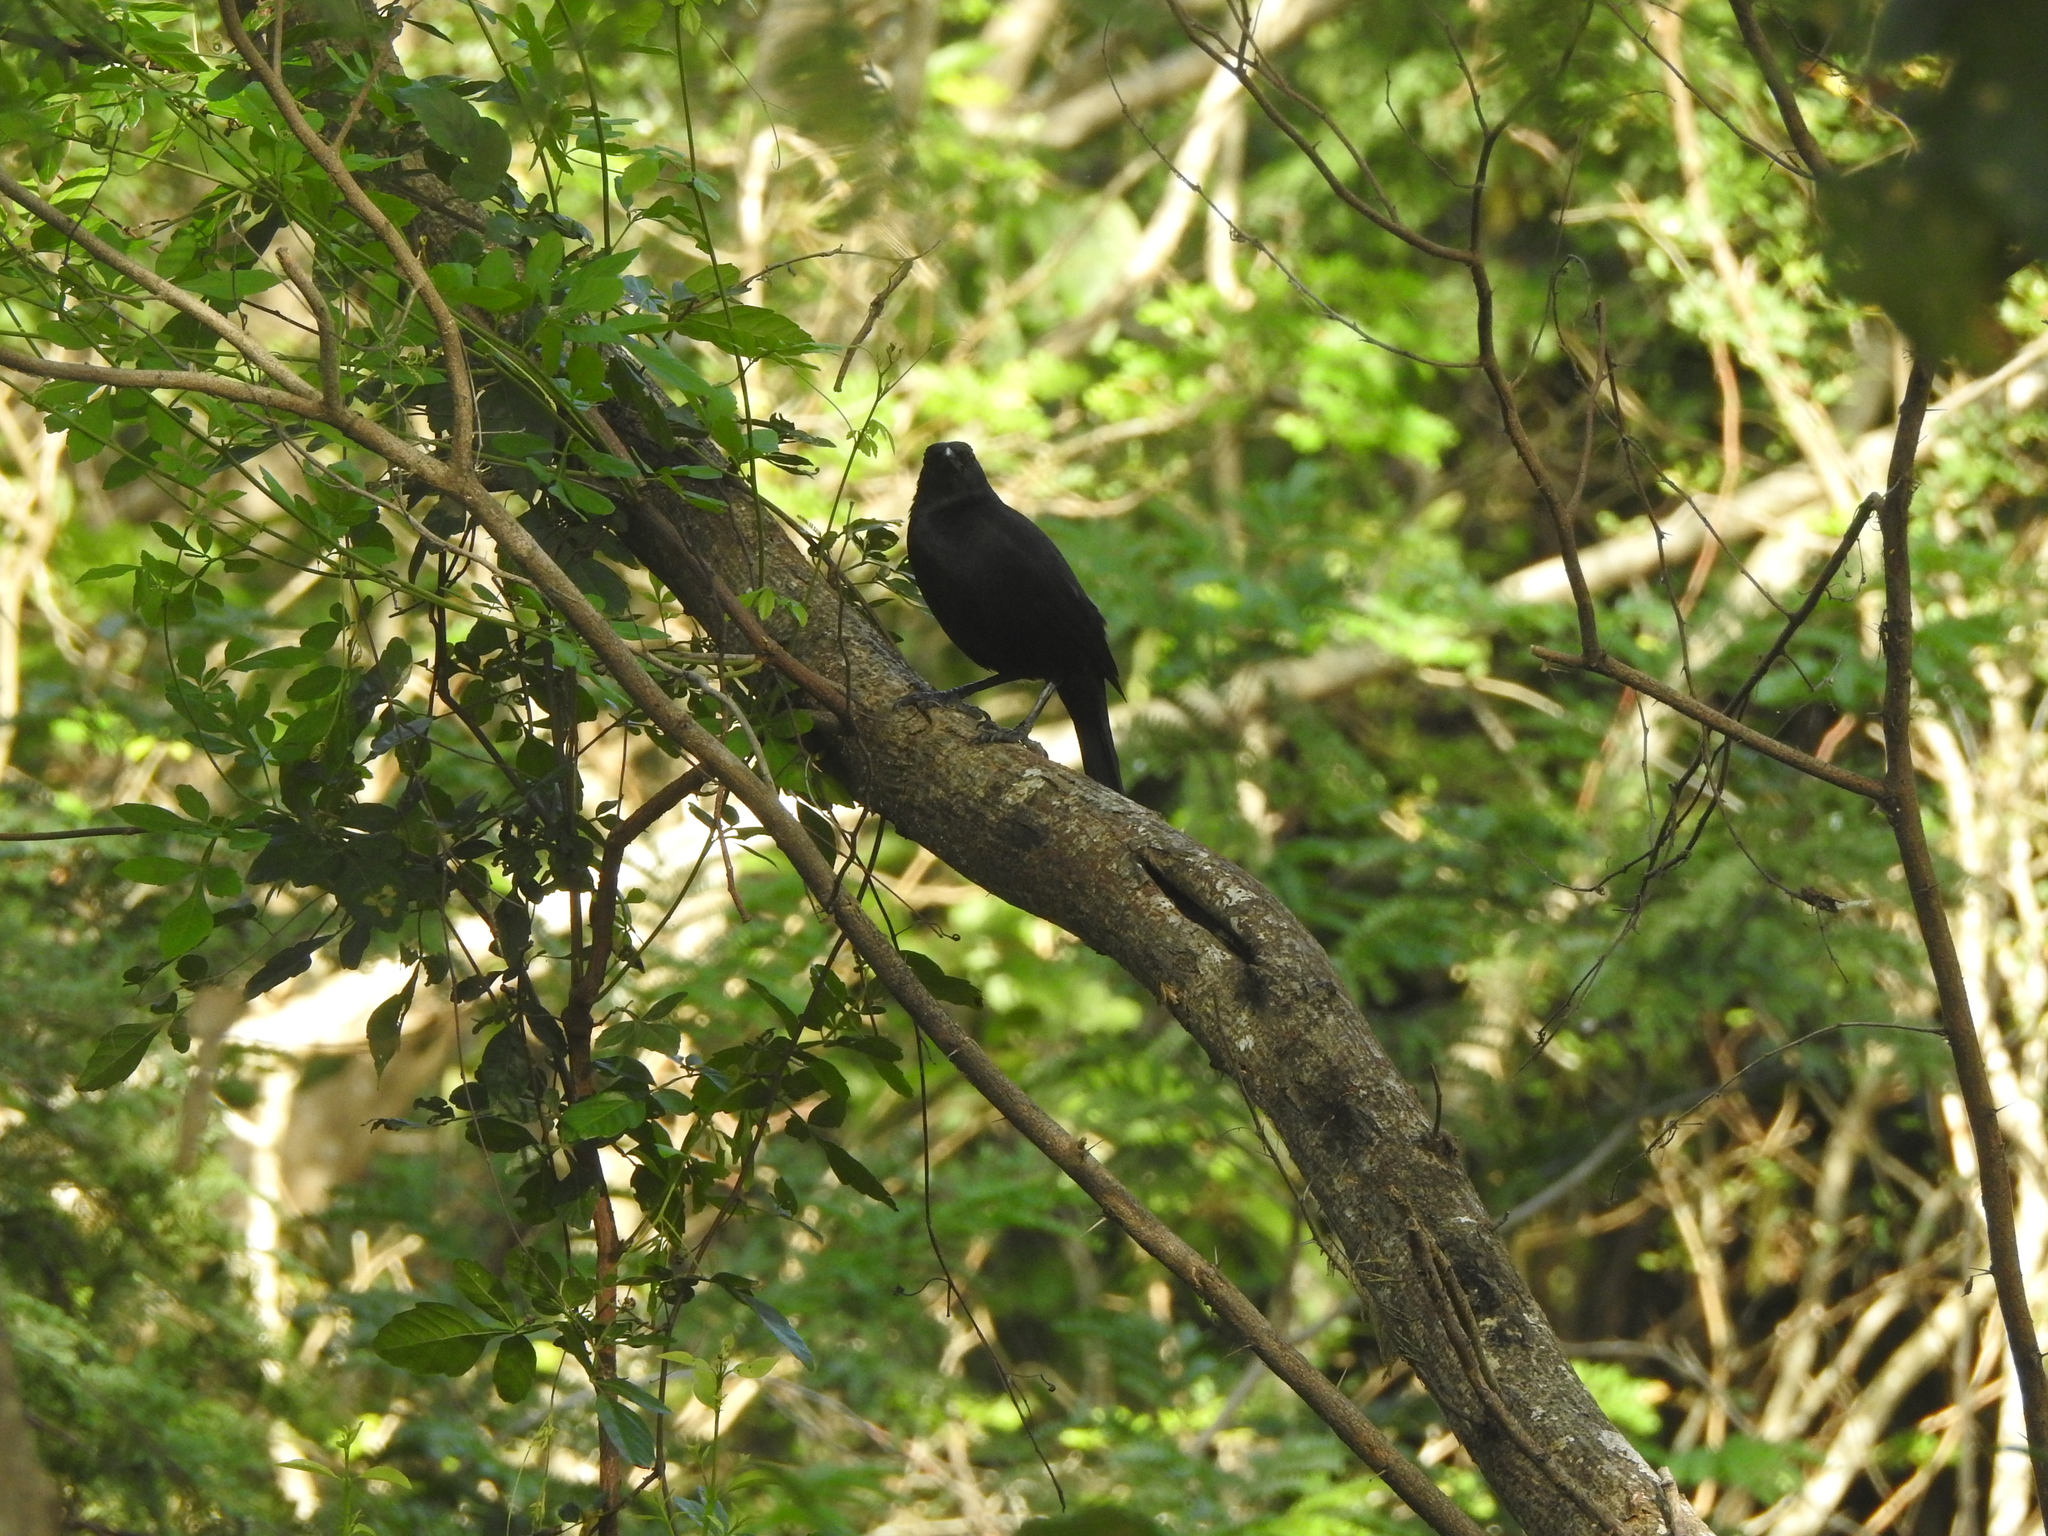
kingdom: Animalia
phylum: Chordata
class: Aves
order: Passeriformes
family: Icteridae
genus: Dives
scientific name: Dives dives
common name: Melodious blackbird
